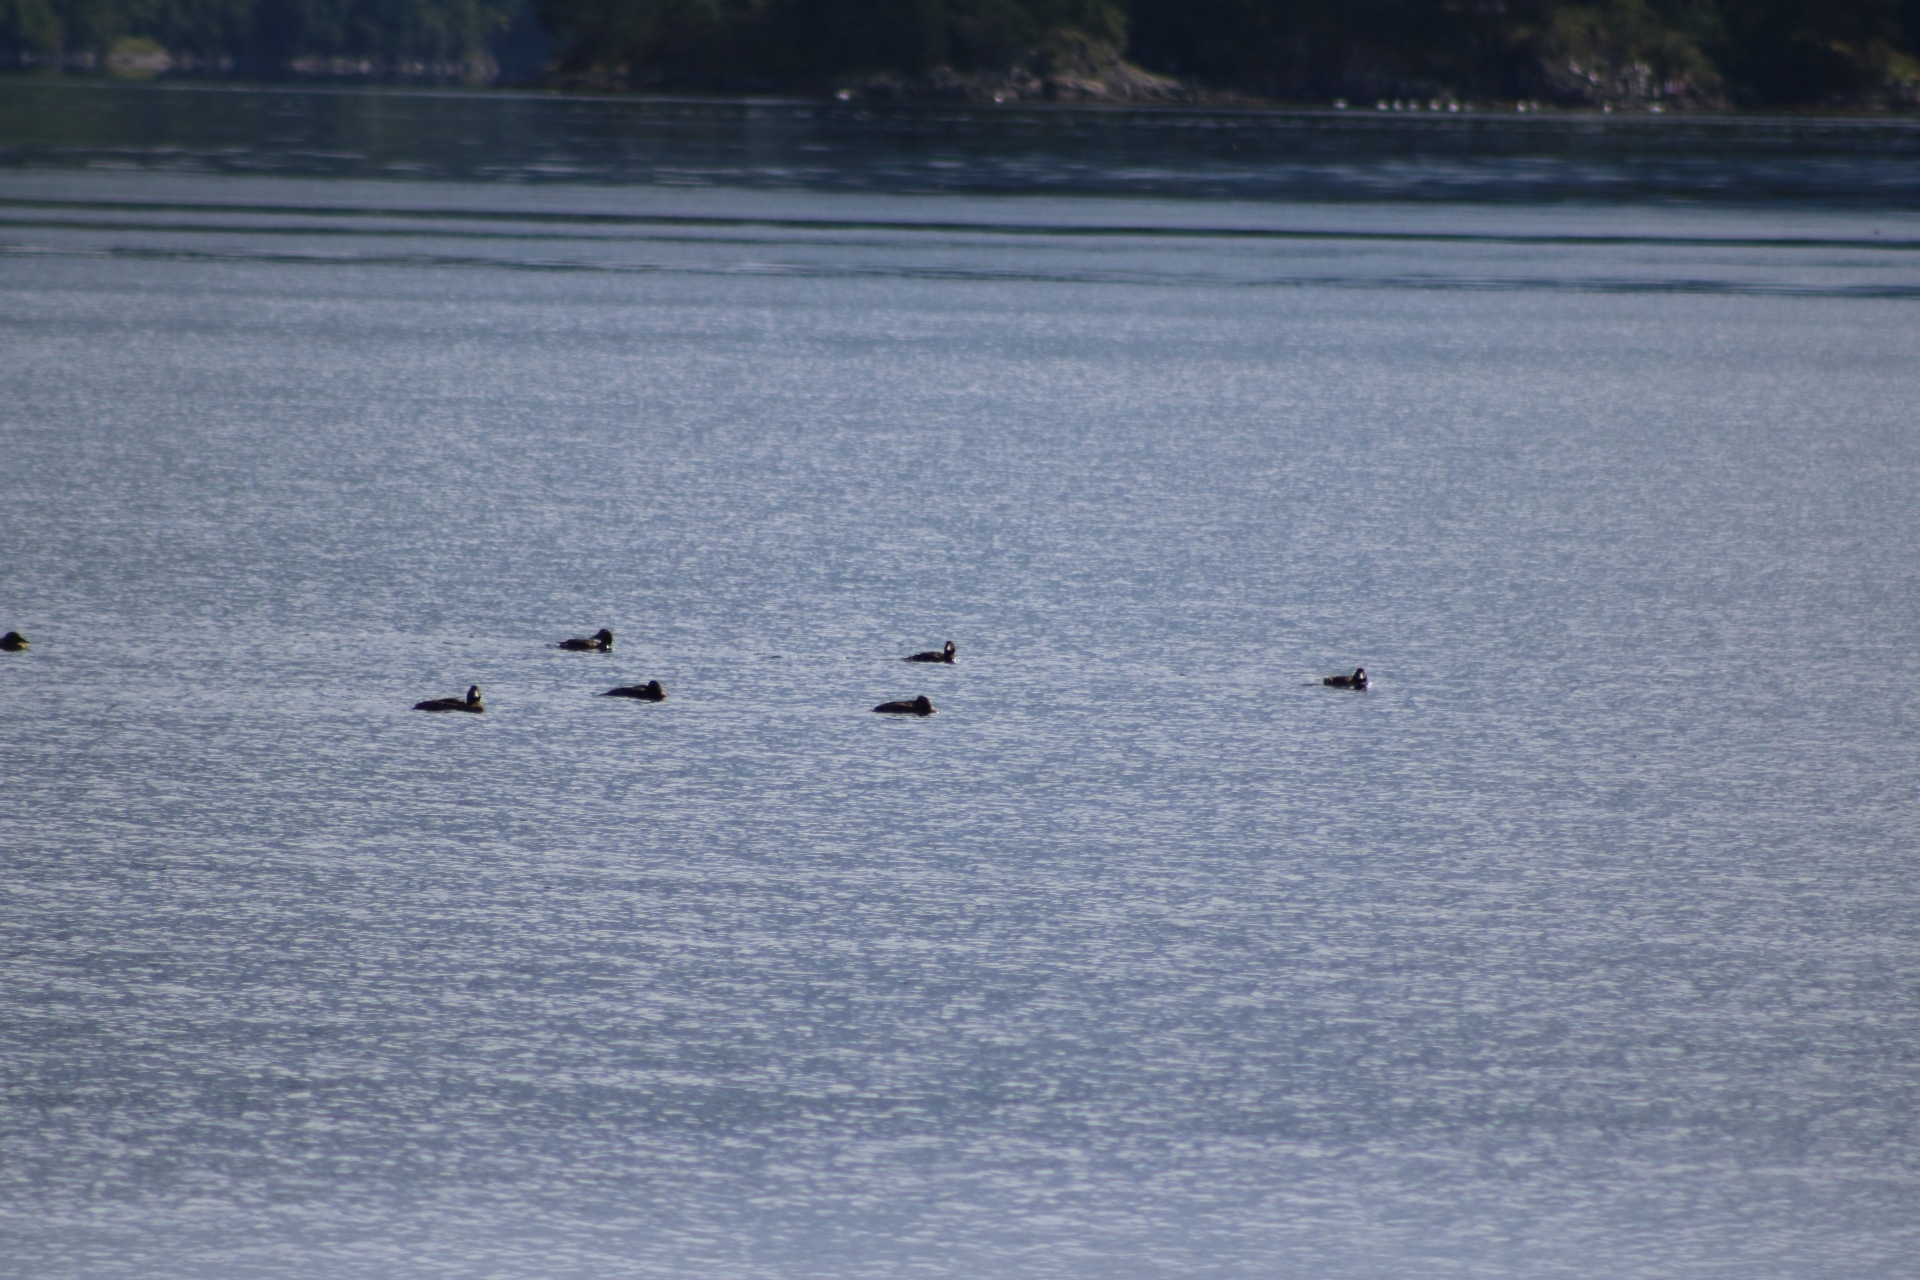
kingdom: Animalia
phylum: Chordata
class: Aves
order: Anseriformes
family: Anatidae
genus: Somateria
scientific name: Somateria mollissima
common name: Common eider
